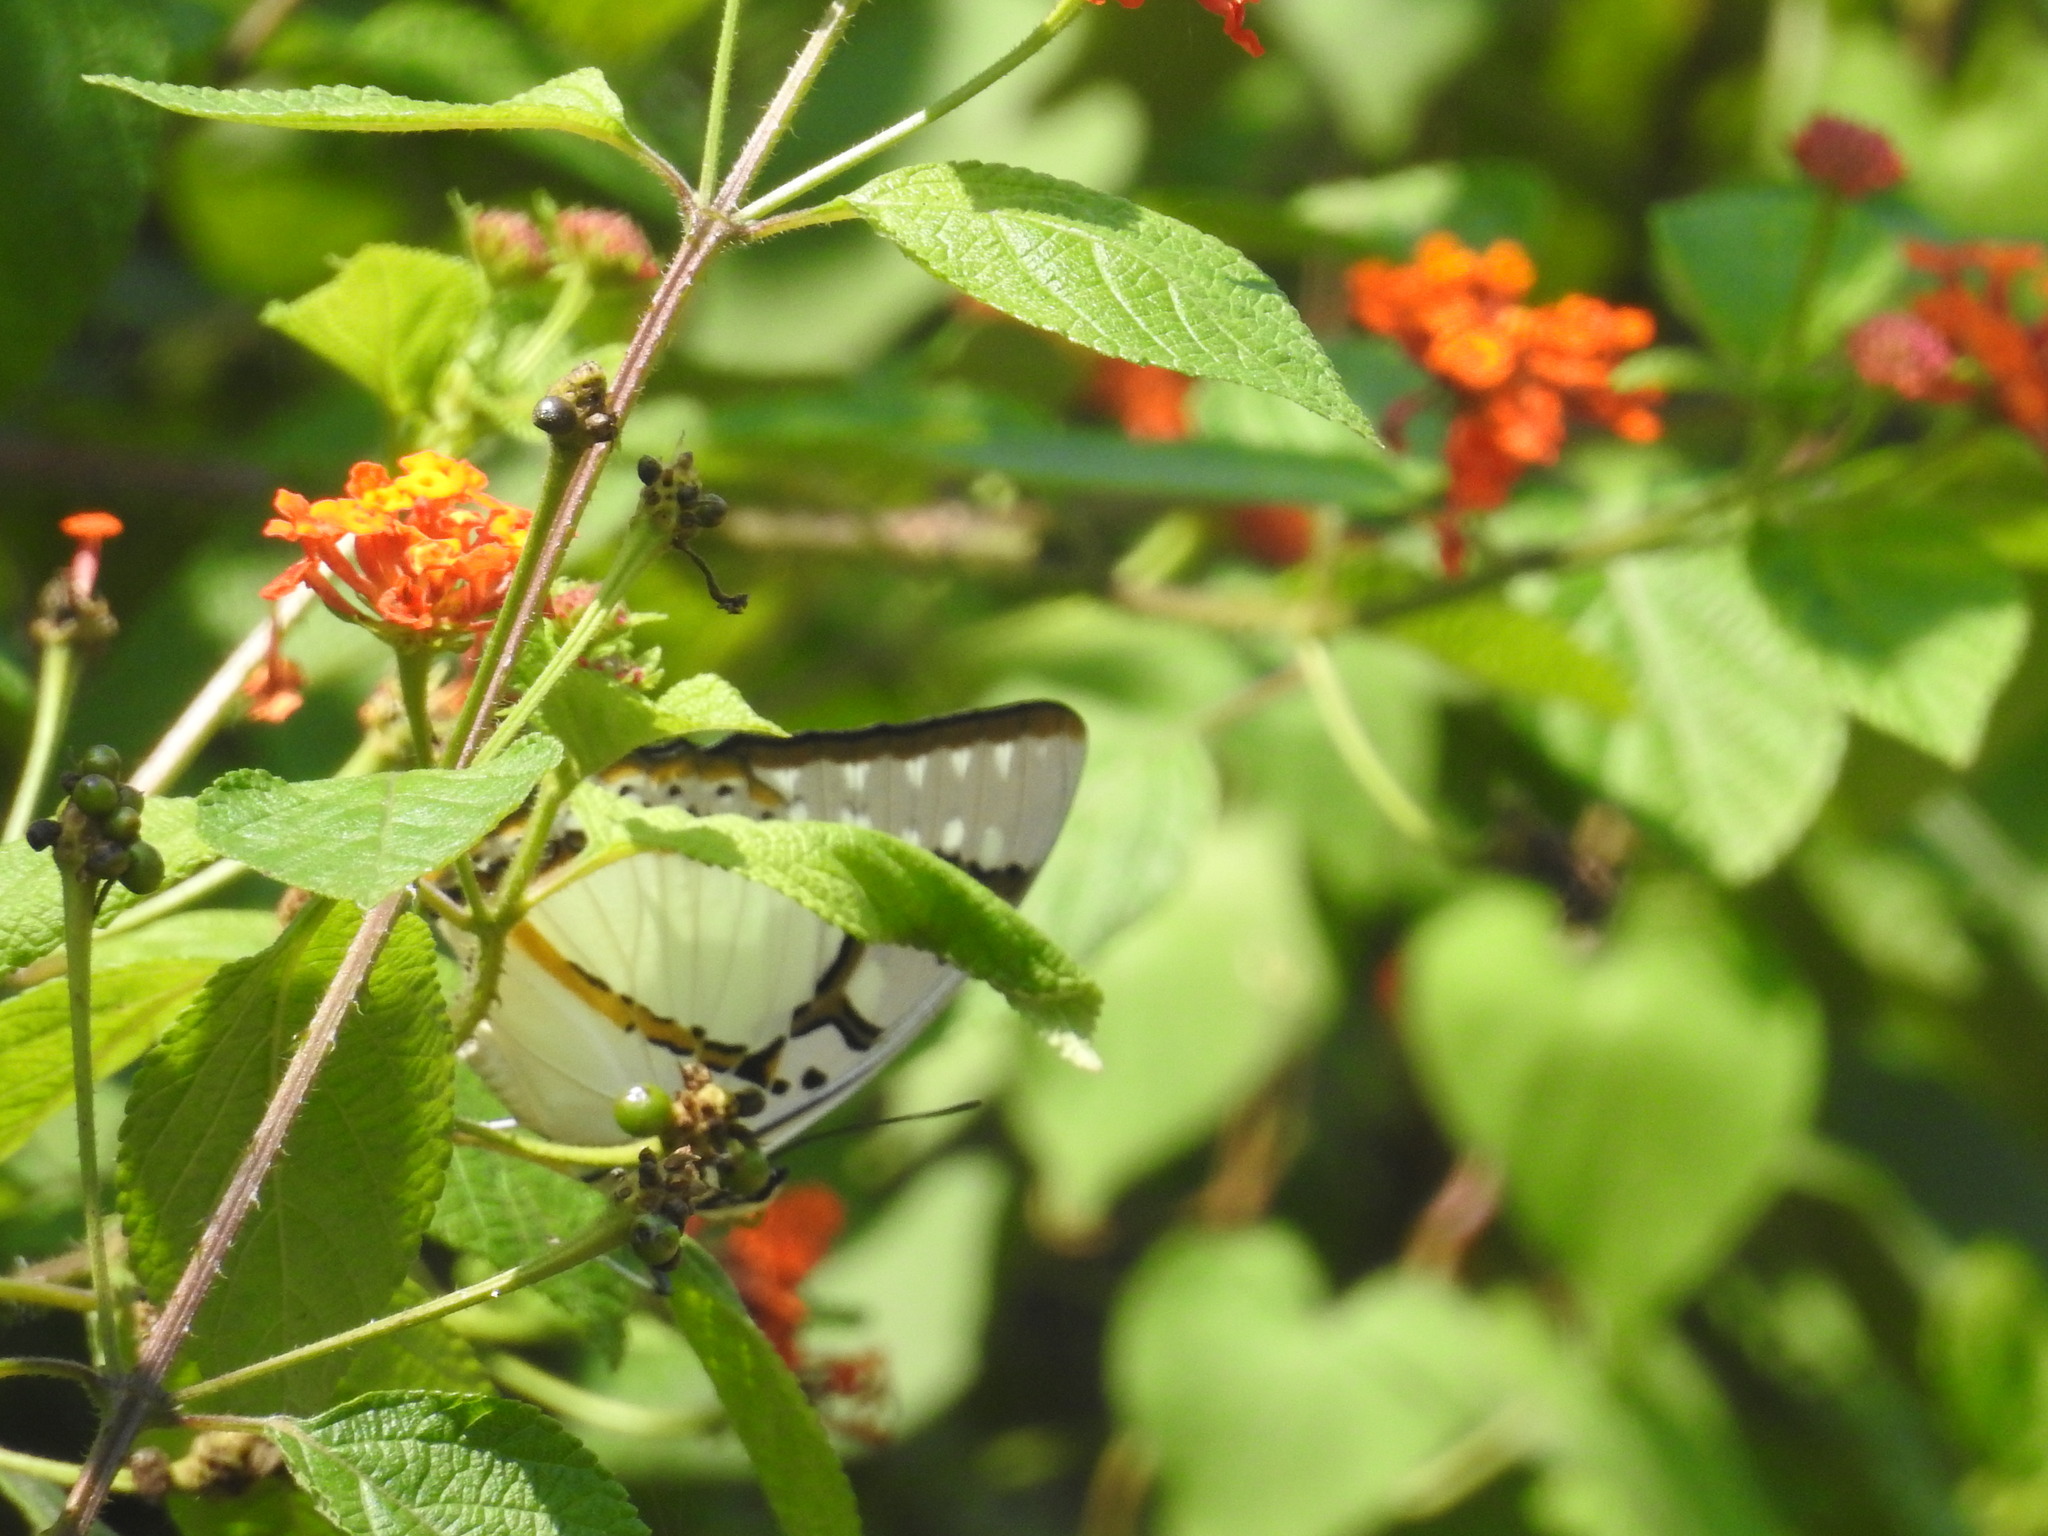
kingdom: Animalia
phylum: Arthropoda
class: Insecta
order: Lepidoptera
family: Nymphalidae
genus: Polyura
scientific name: Polyura eudamippus
